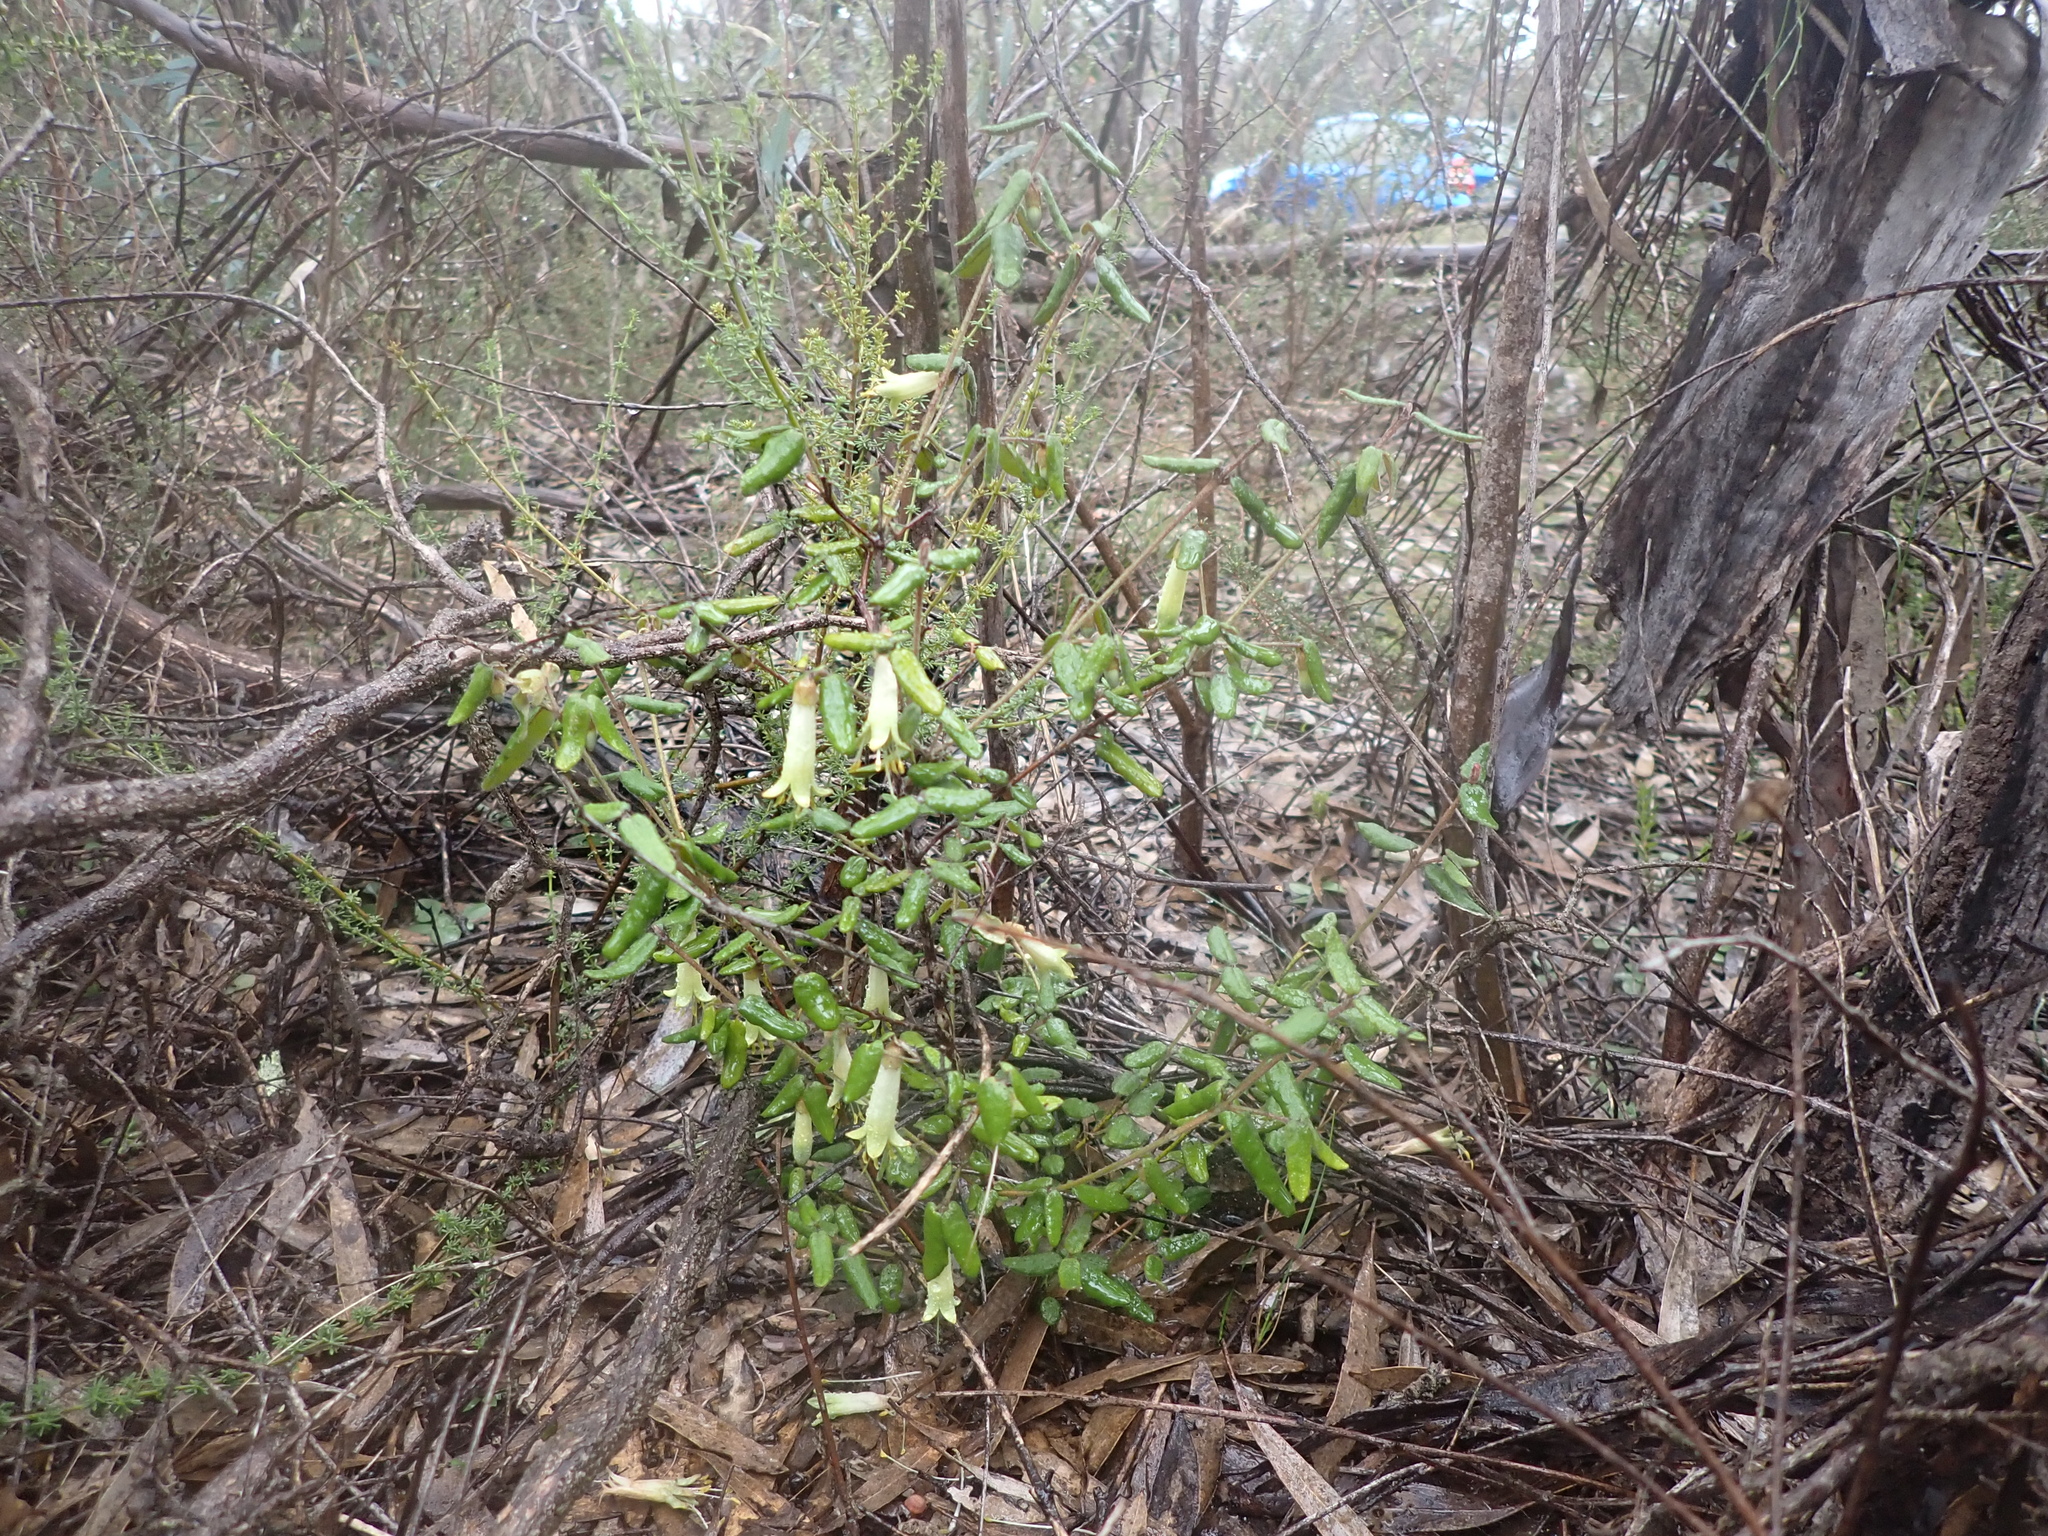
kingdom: Plantae
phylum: Tracheophyta
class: Magnoliopsida
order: Sapindales
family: Rutaceae
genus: Correa
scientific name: Correa reflexa
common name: Common correa
